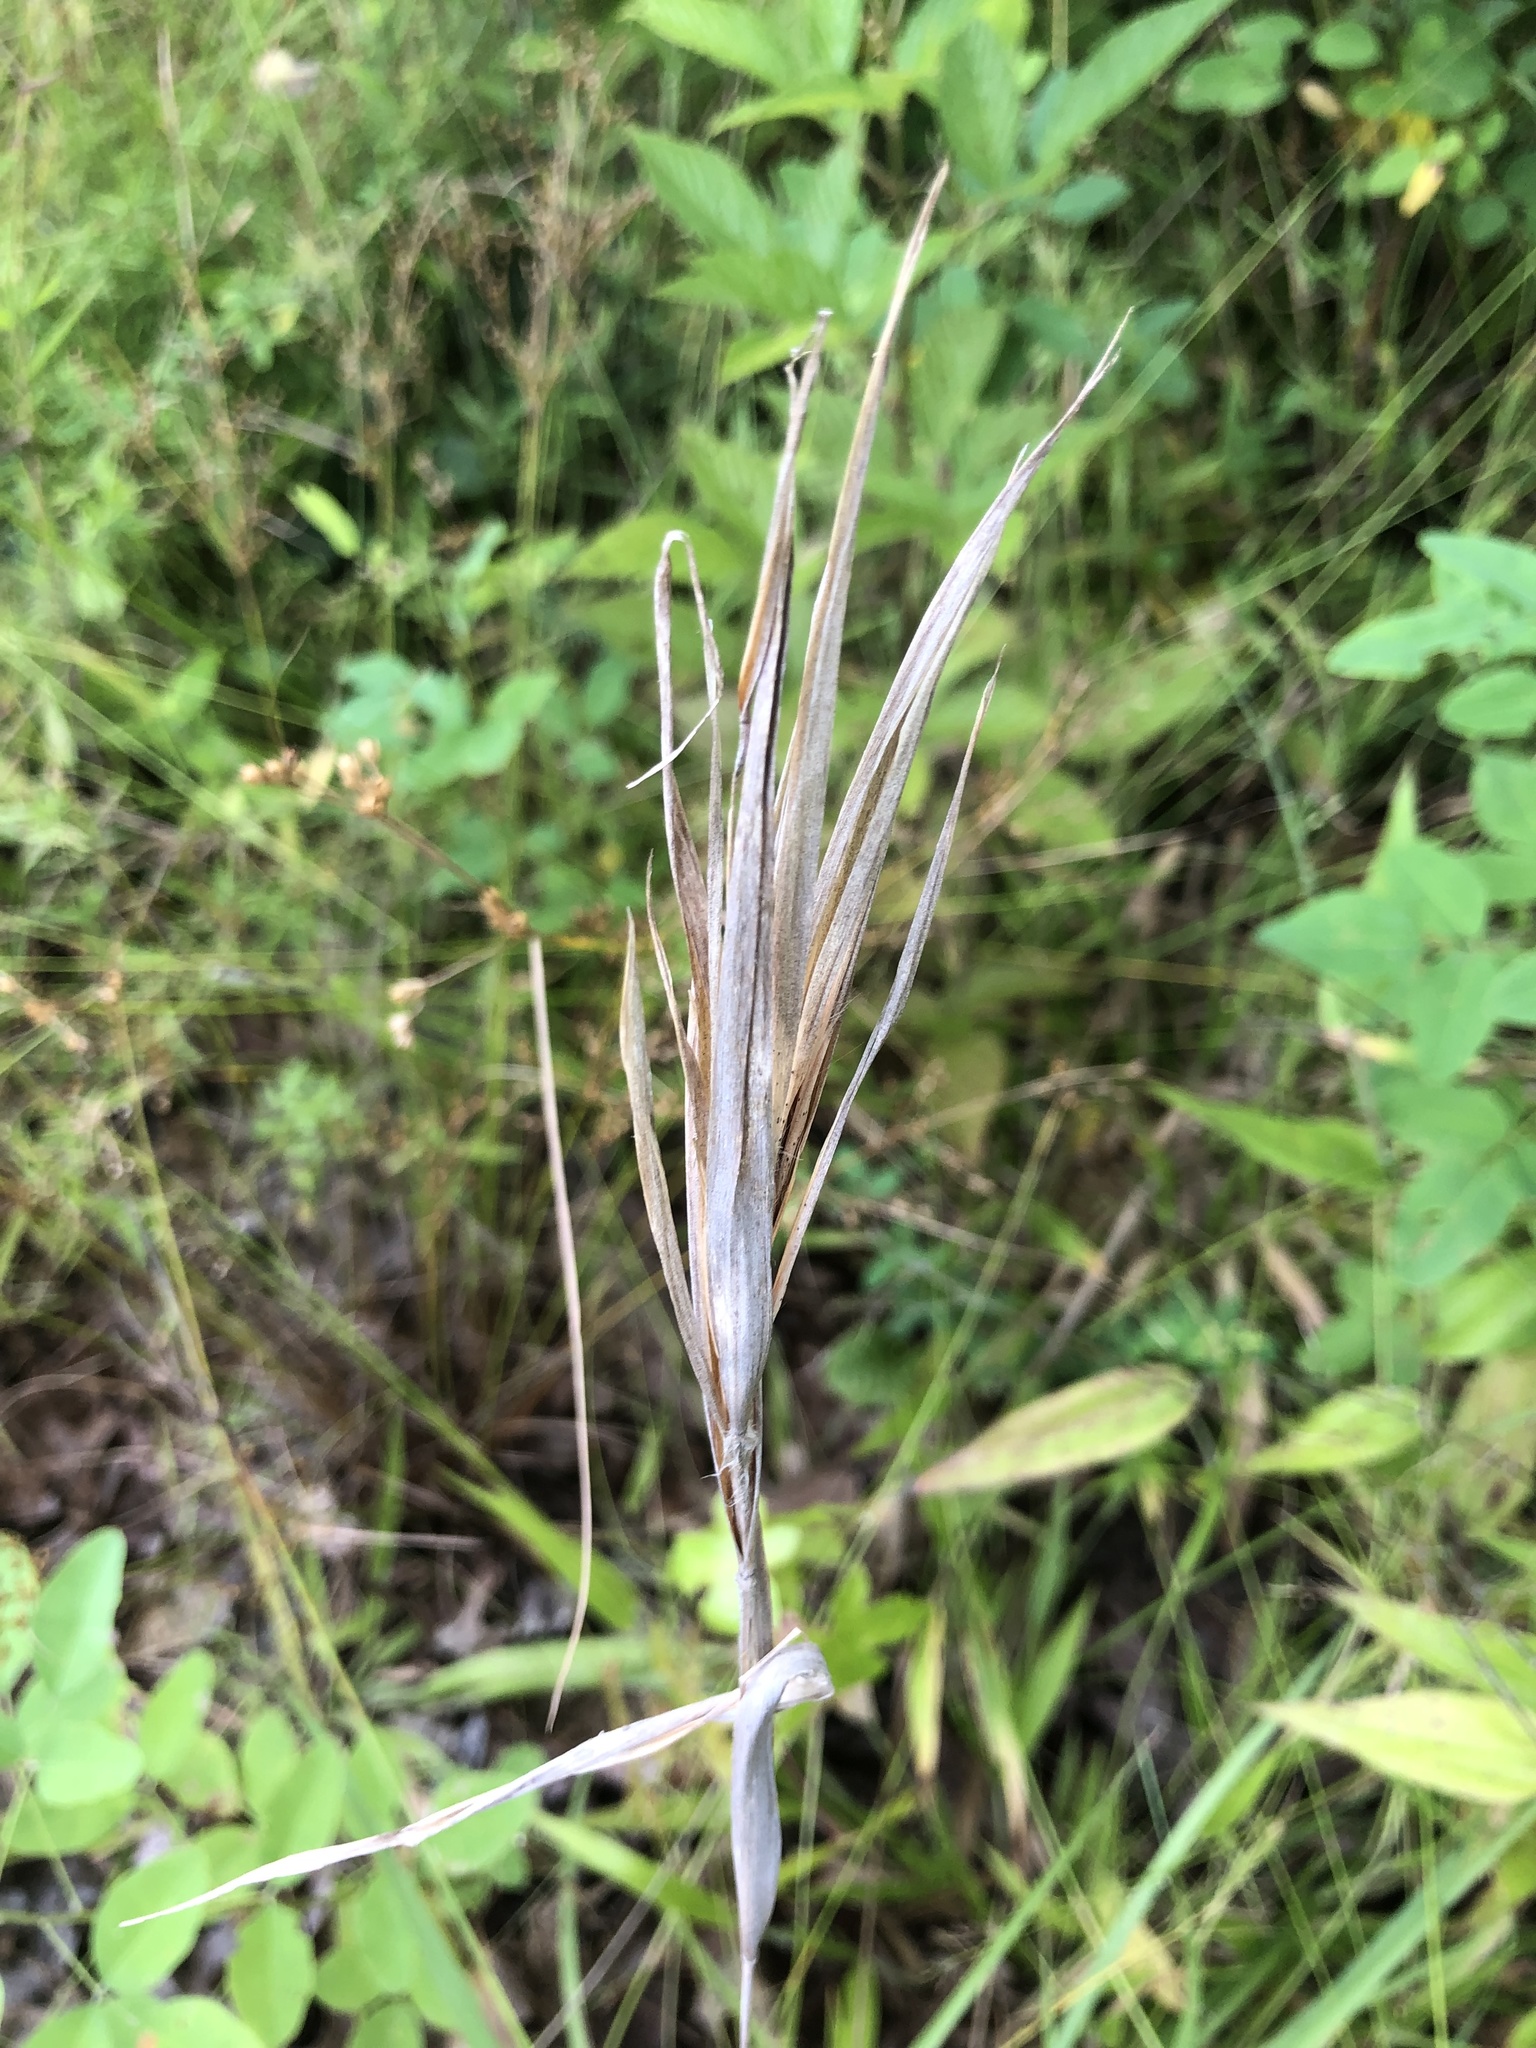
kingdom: Plantae
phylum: Tracheophyta
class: Liliopsida
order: Poales
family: Poaceae
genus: Andropogon
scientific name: Andropogon gyrans
